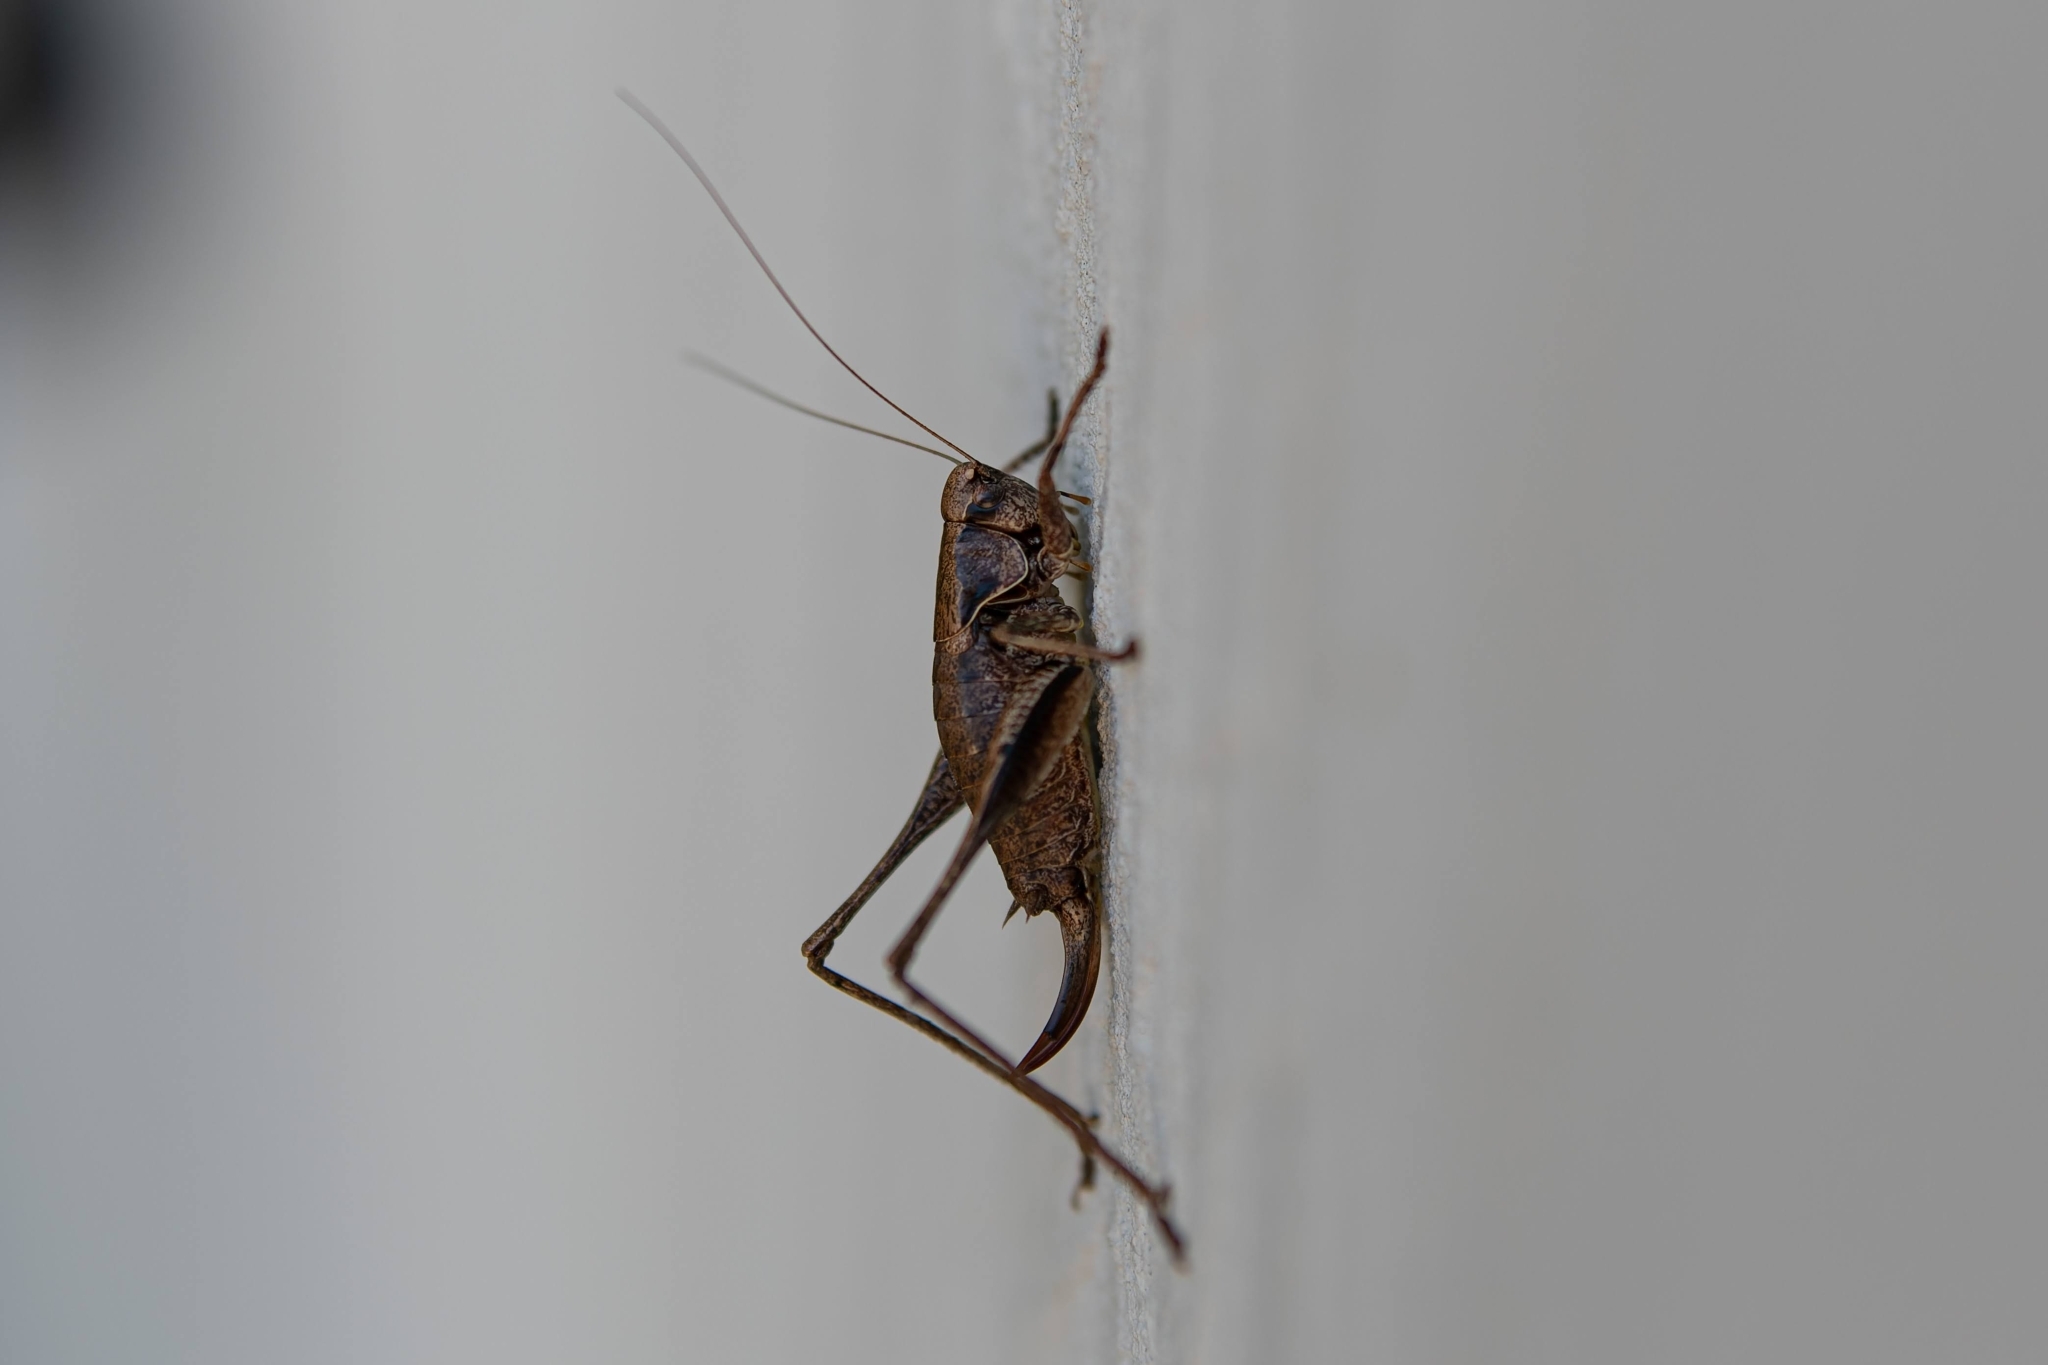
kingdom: Animalia
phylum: Arthropoda
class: Insecta
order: Orthoptera
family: Tettigoniidae
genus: Pholidoptera
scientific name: Pholidoptera griseoaptera
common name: Dark bush-cricket
